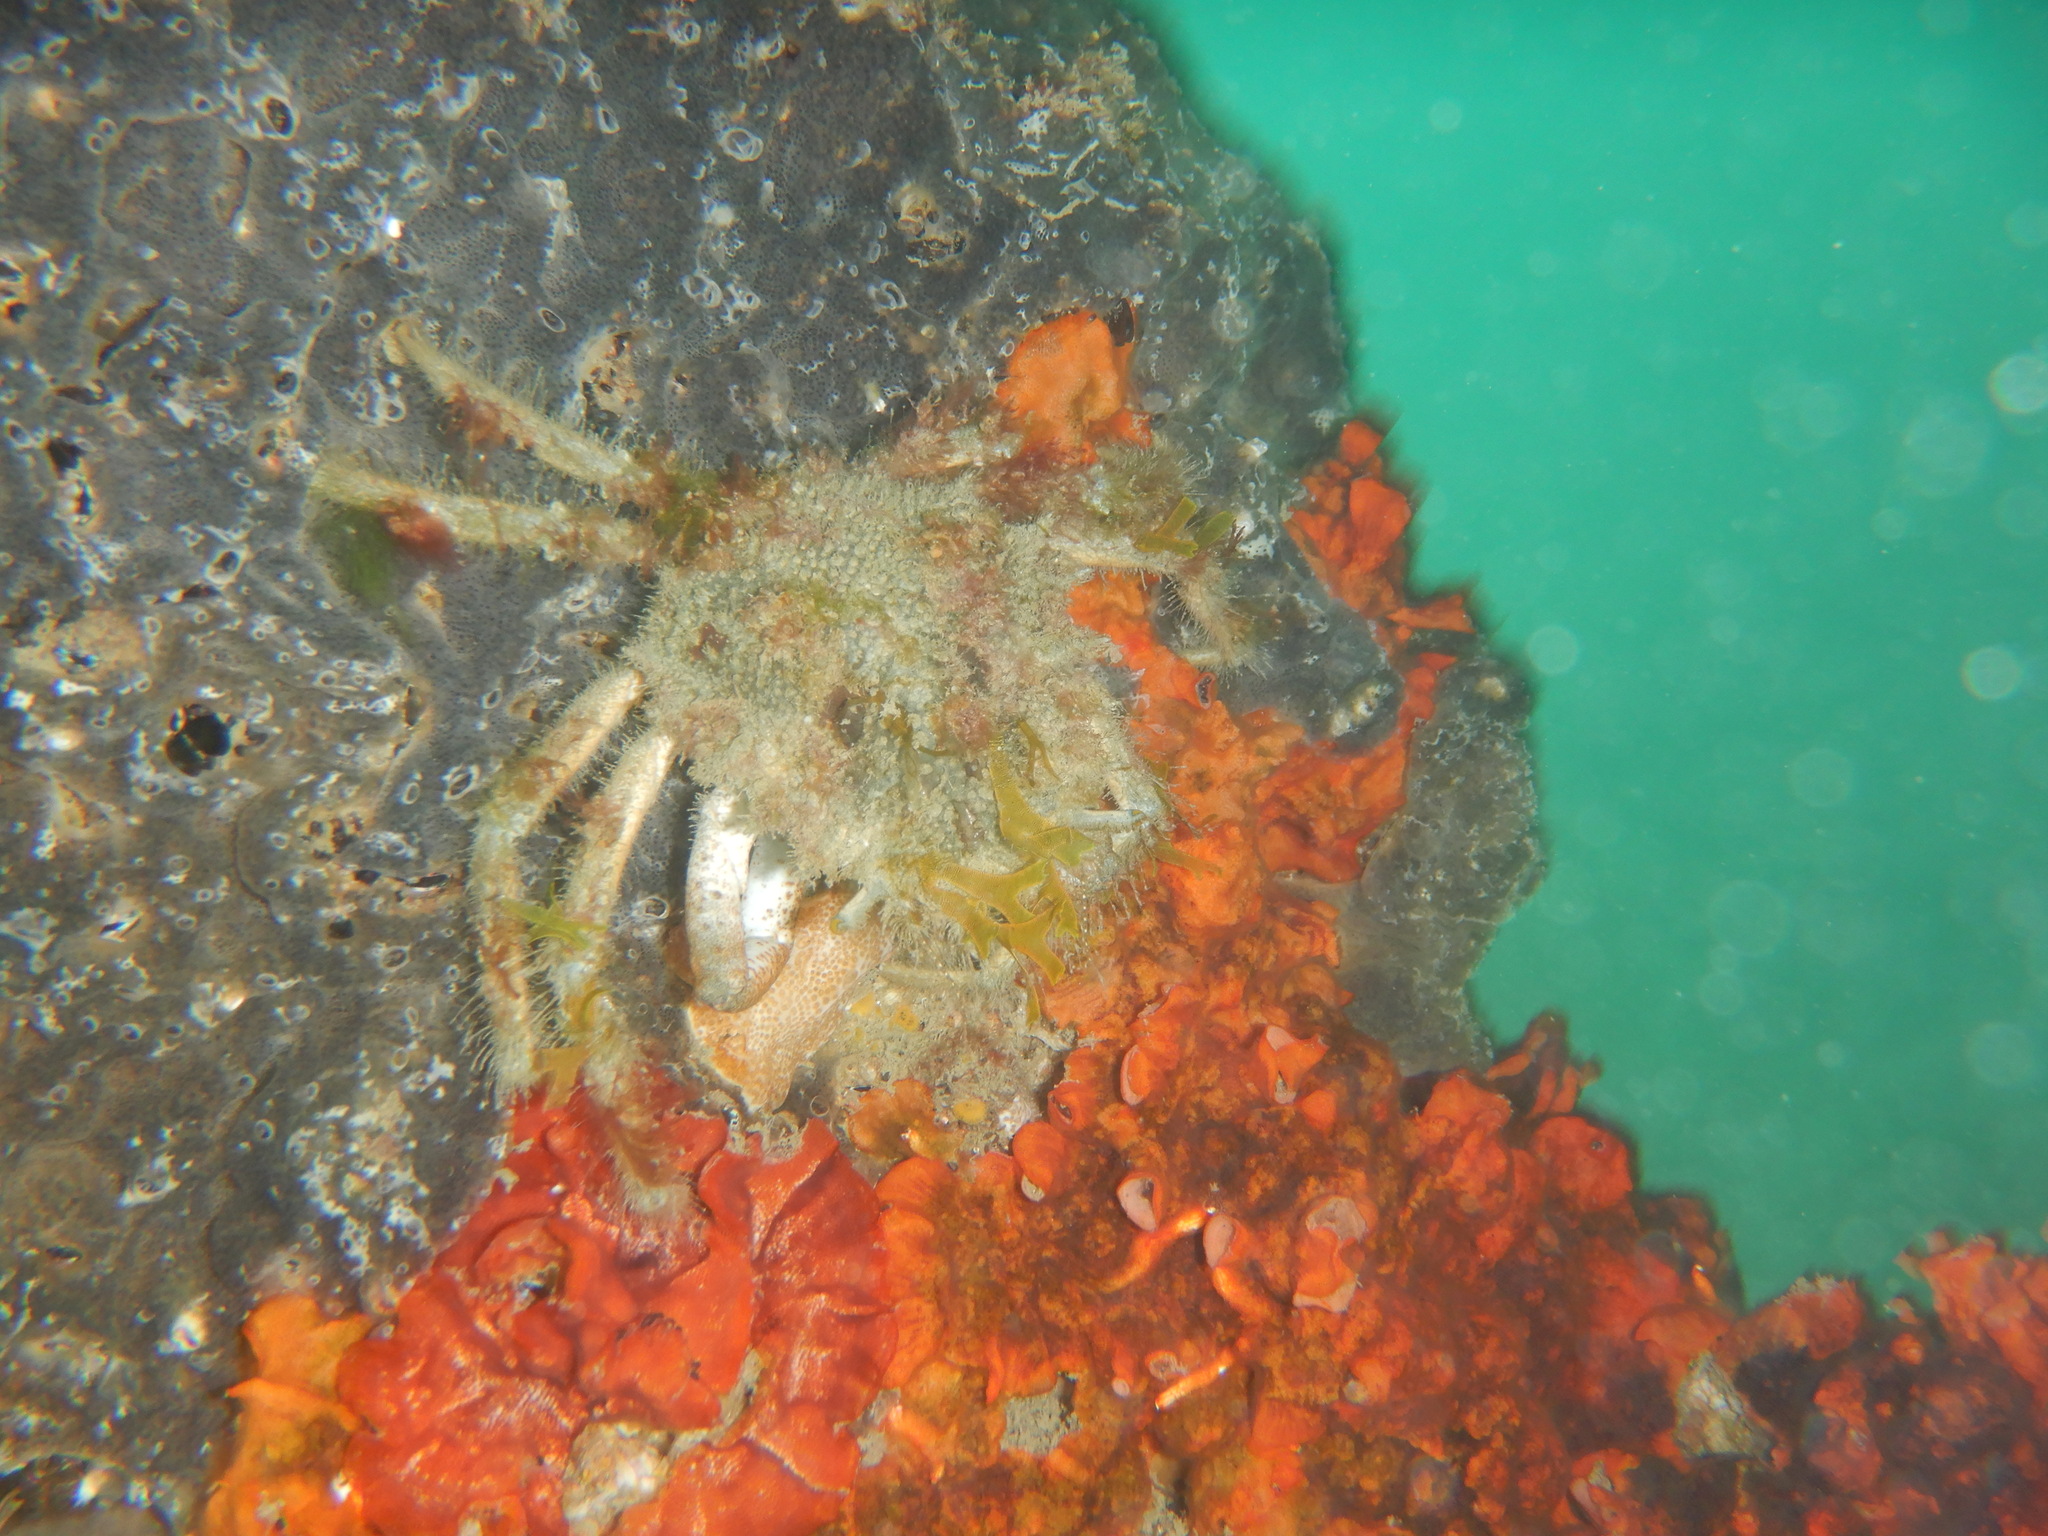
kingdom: Animalia
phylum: Arthropoda
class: Malacostraca
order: Decapoda
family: Majidae
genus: Maja
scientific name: Maja crispata
